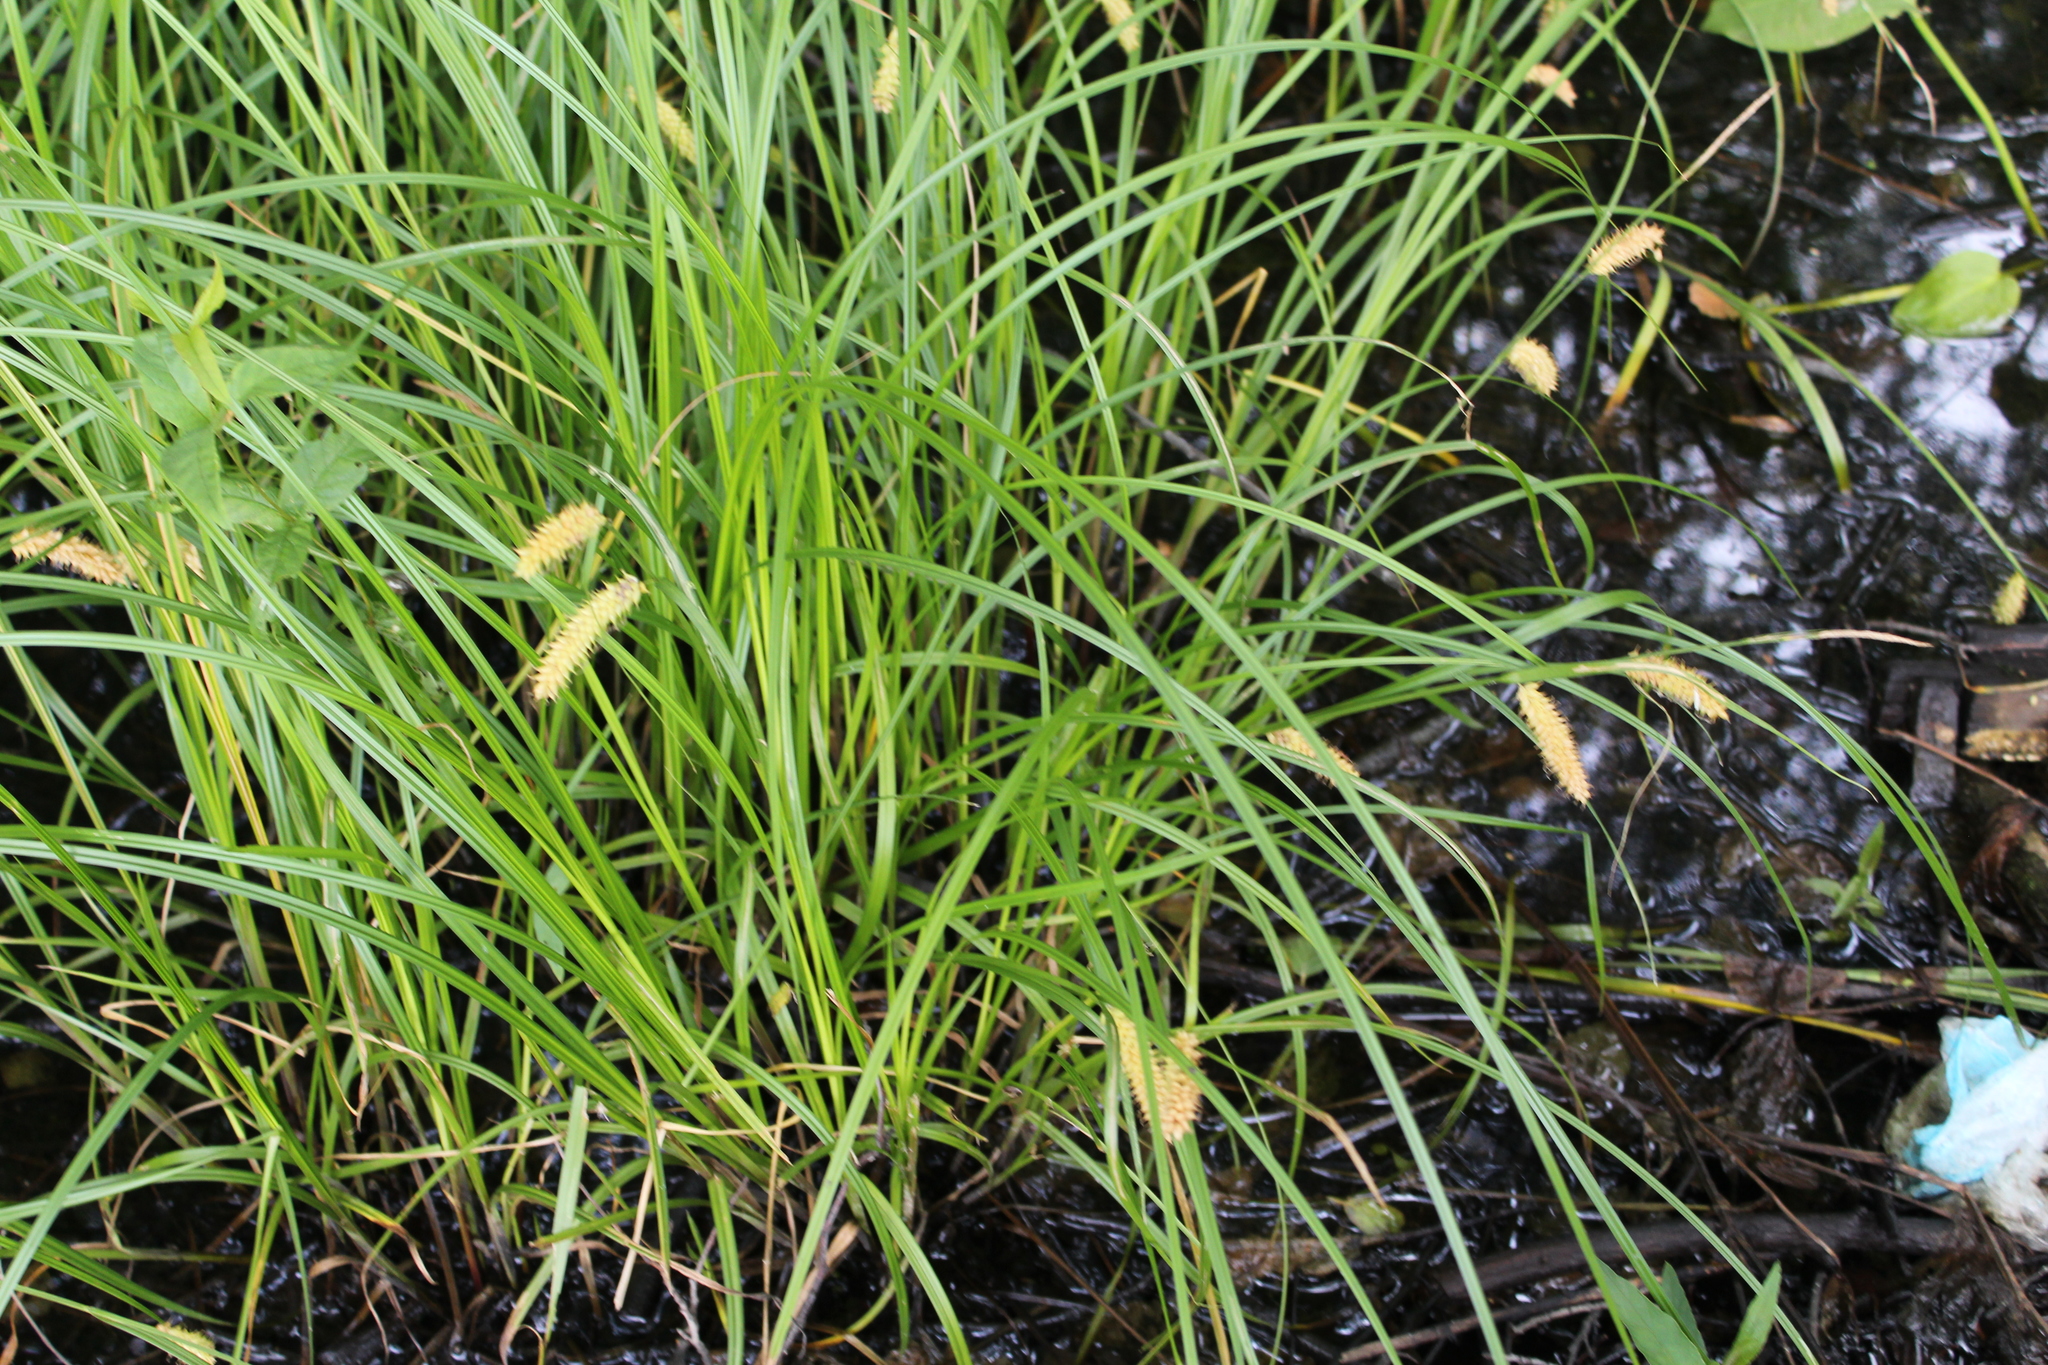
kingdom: Plantae
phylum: Tracheophyta
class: Liliopsida
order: Poales
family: Cyperaceae
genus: Carex
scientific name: Carex vesicaria
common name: Bladder-sedge
